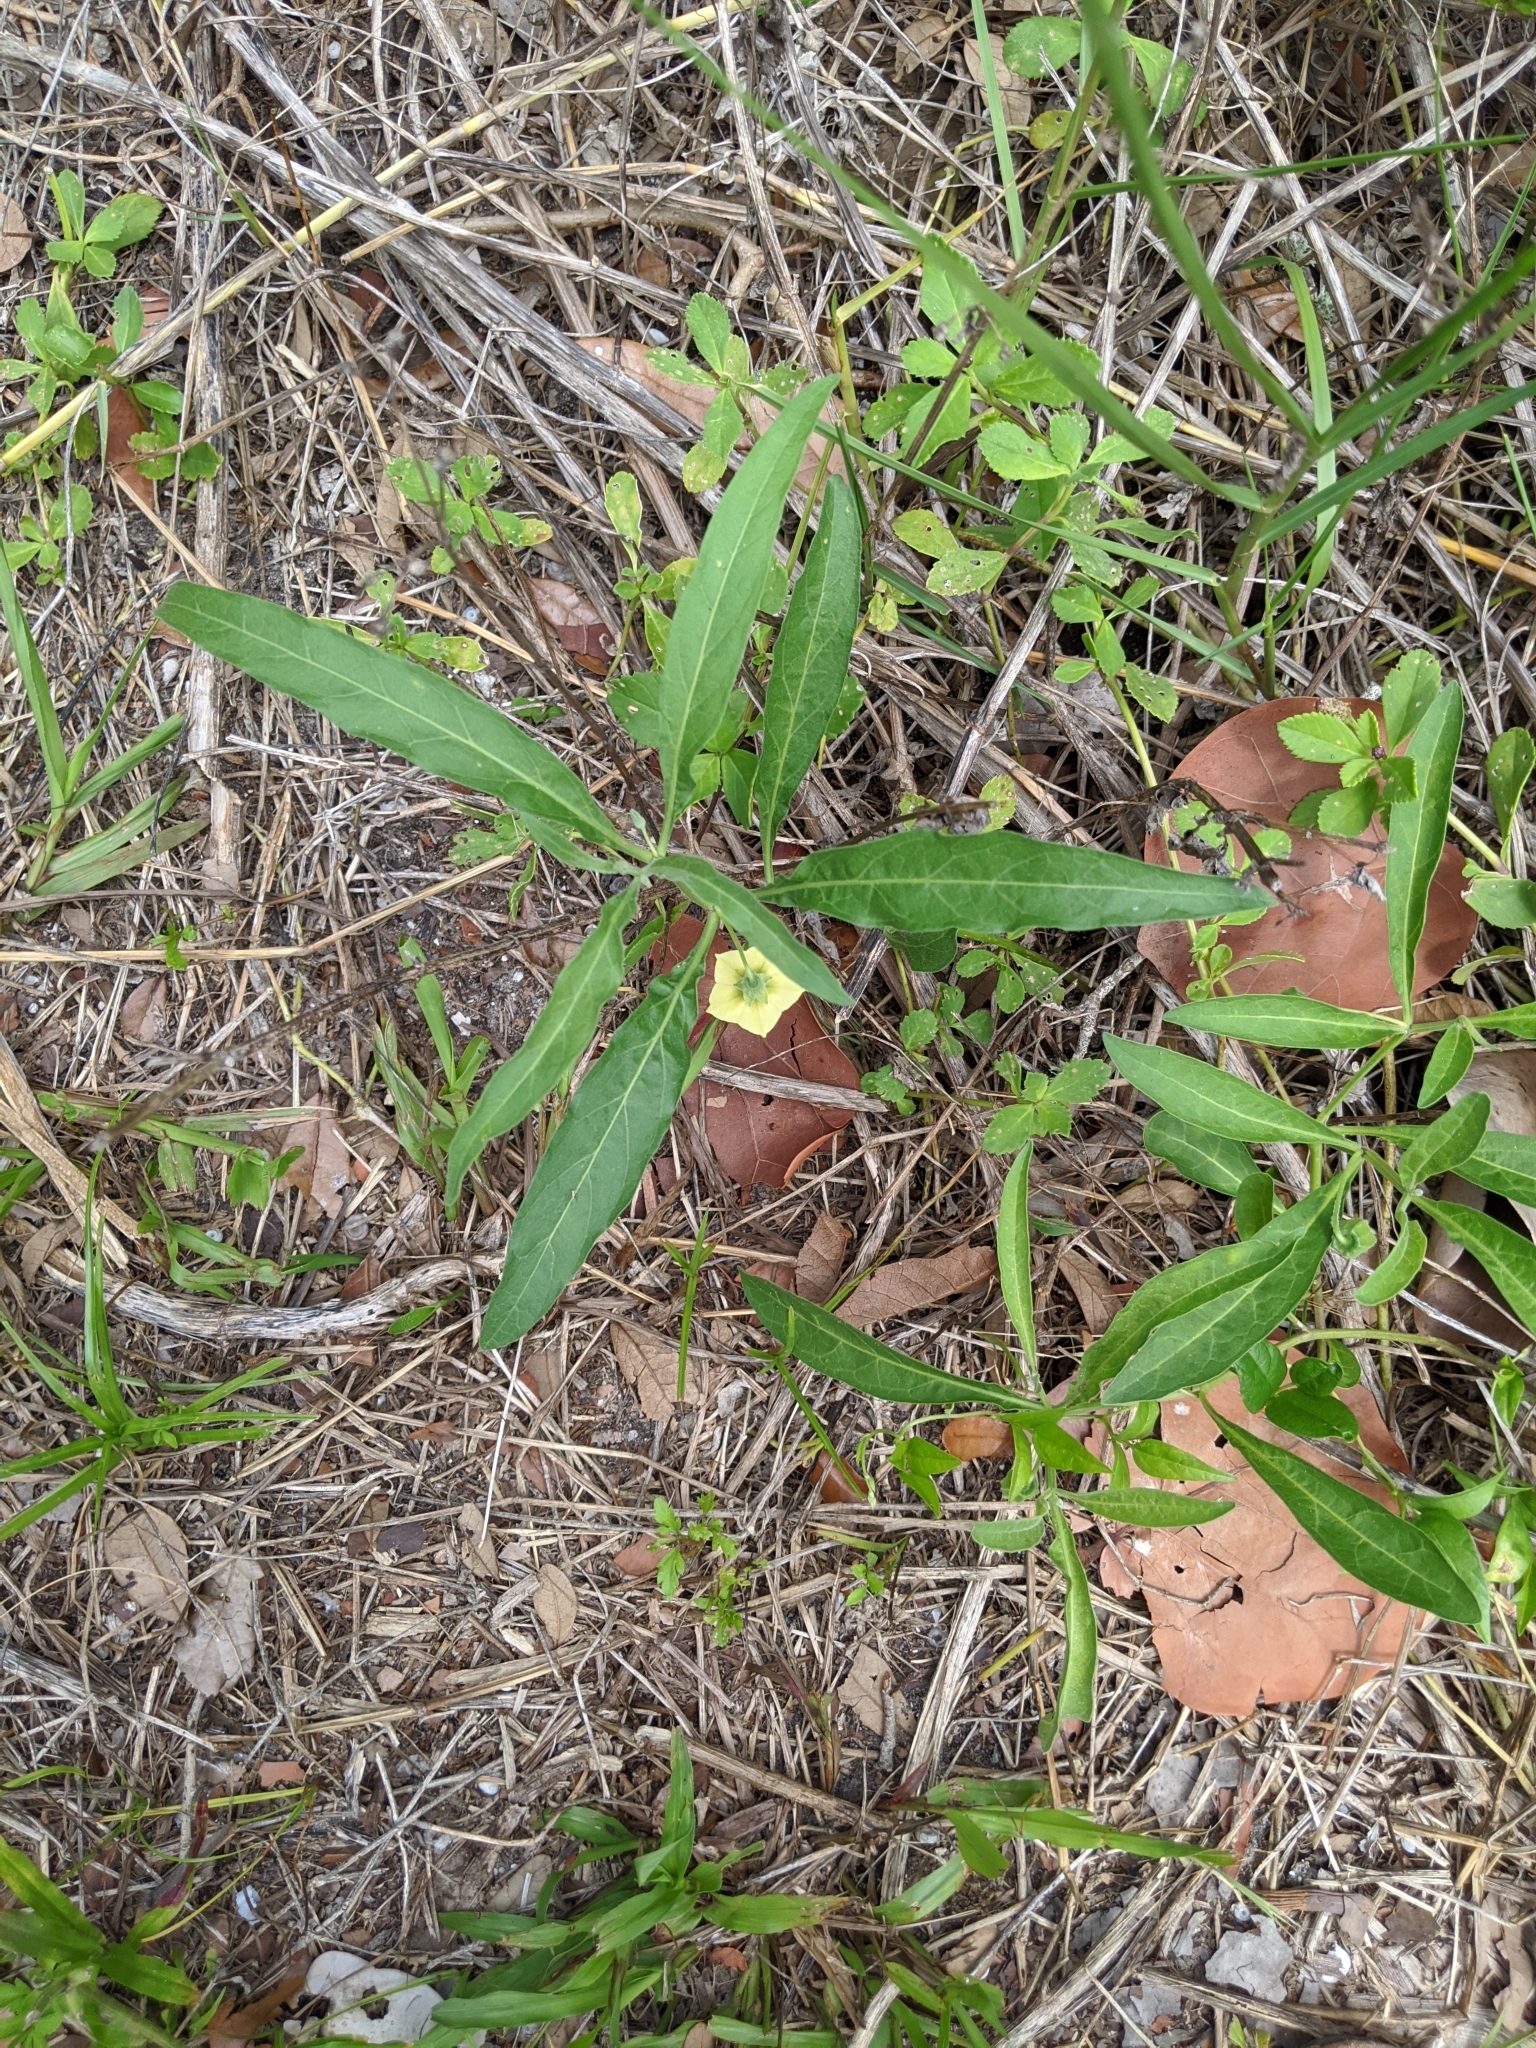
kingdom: Plantae
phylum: Tracheophyta
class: Magnoliopsida
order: Solanales
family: Solanaceae
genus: Physalis
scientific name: Physalis walteri
